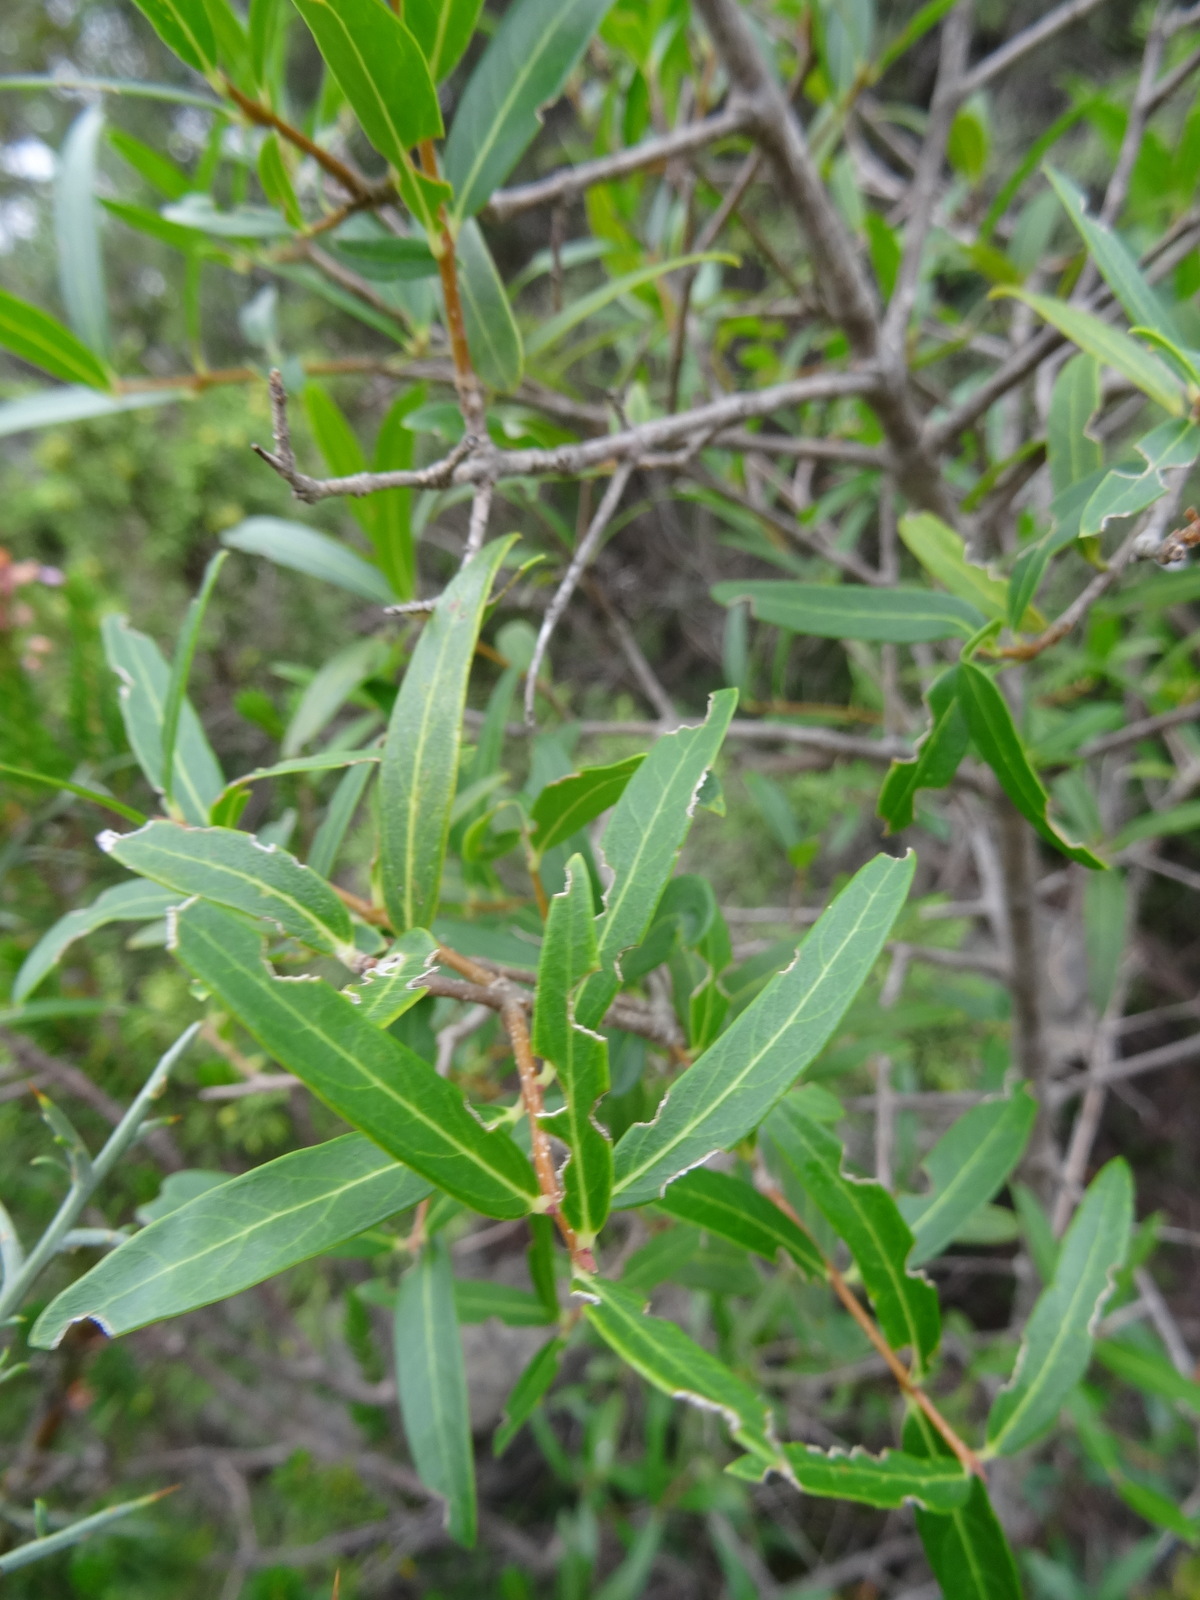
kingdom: Plantae
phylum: Tracheophyta
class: Magnoliopsida
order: Lamiales
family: Oleaceae
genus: Phillyrea
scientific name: Phillyrea angustifolia
